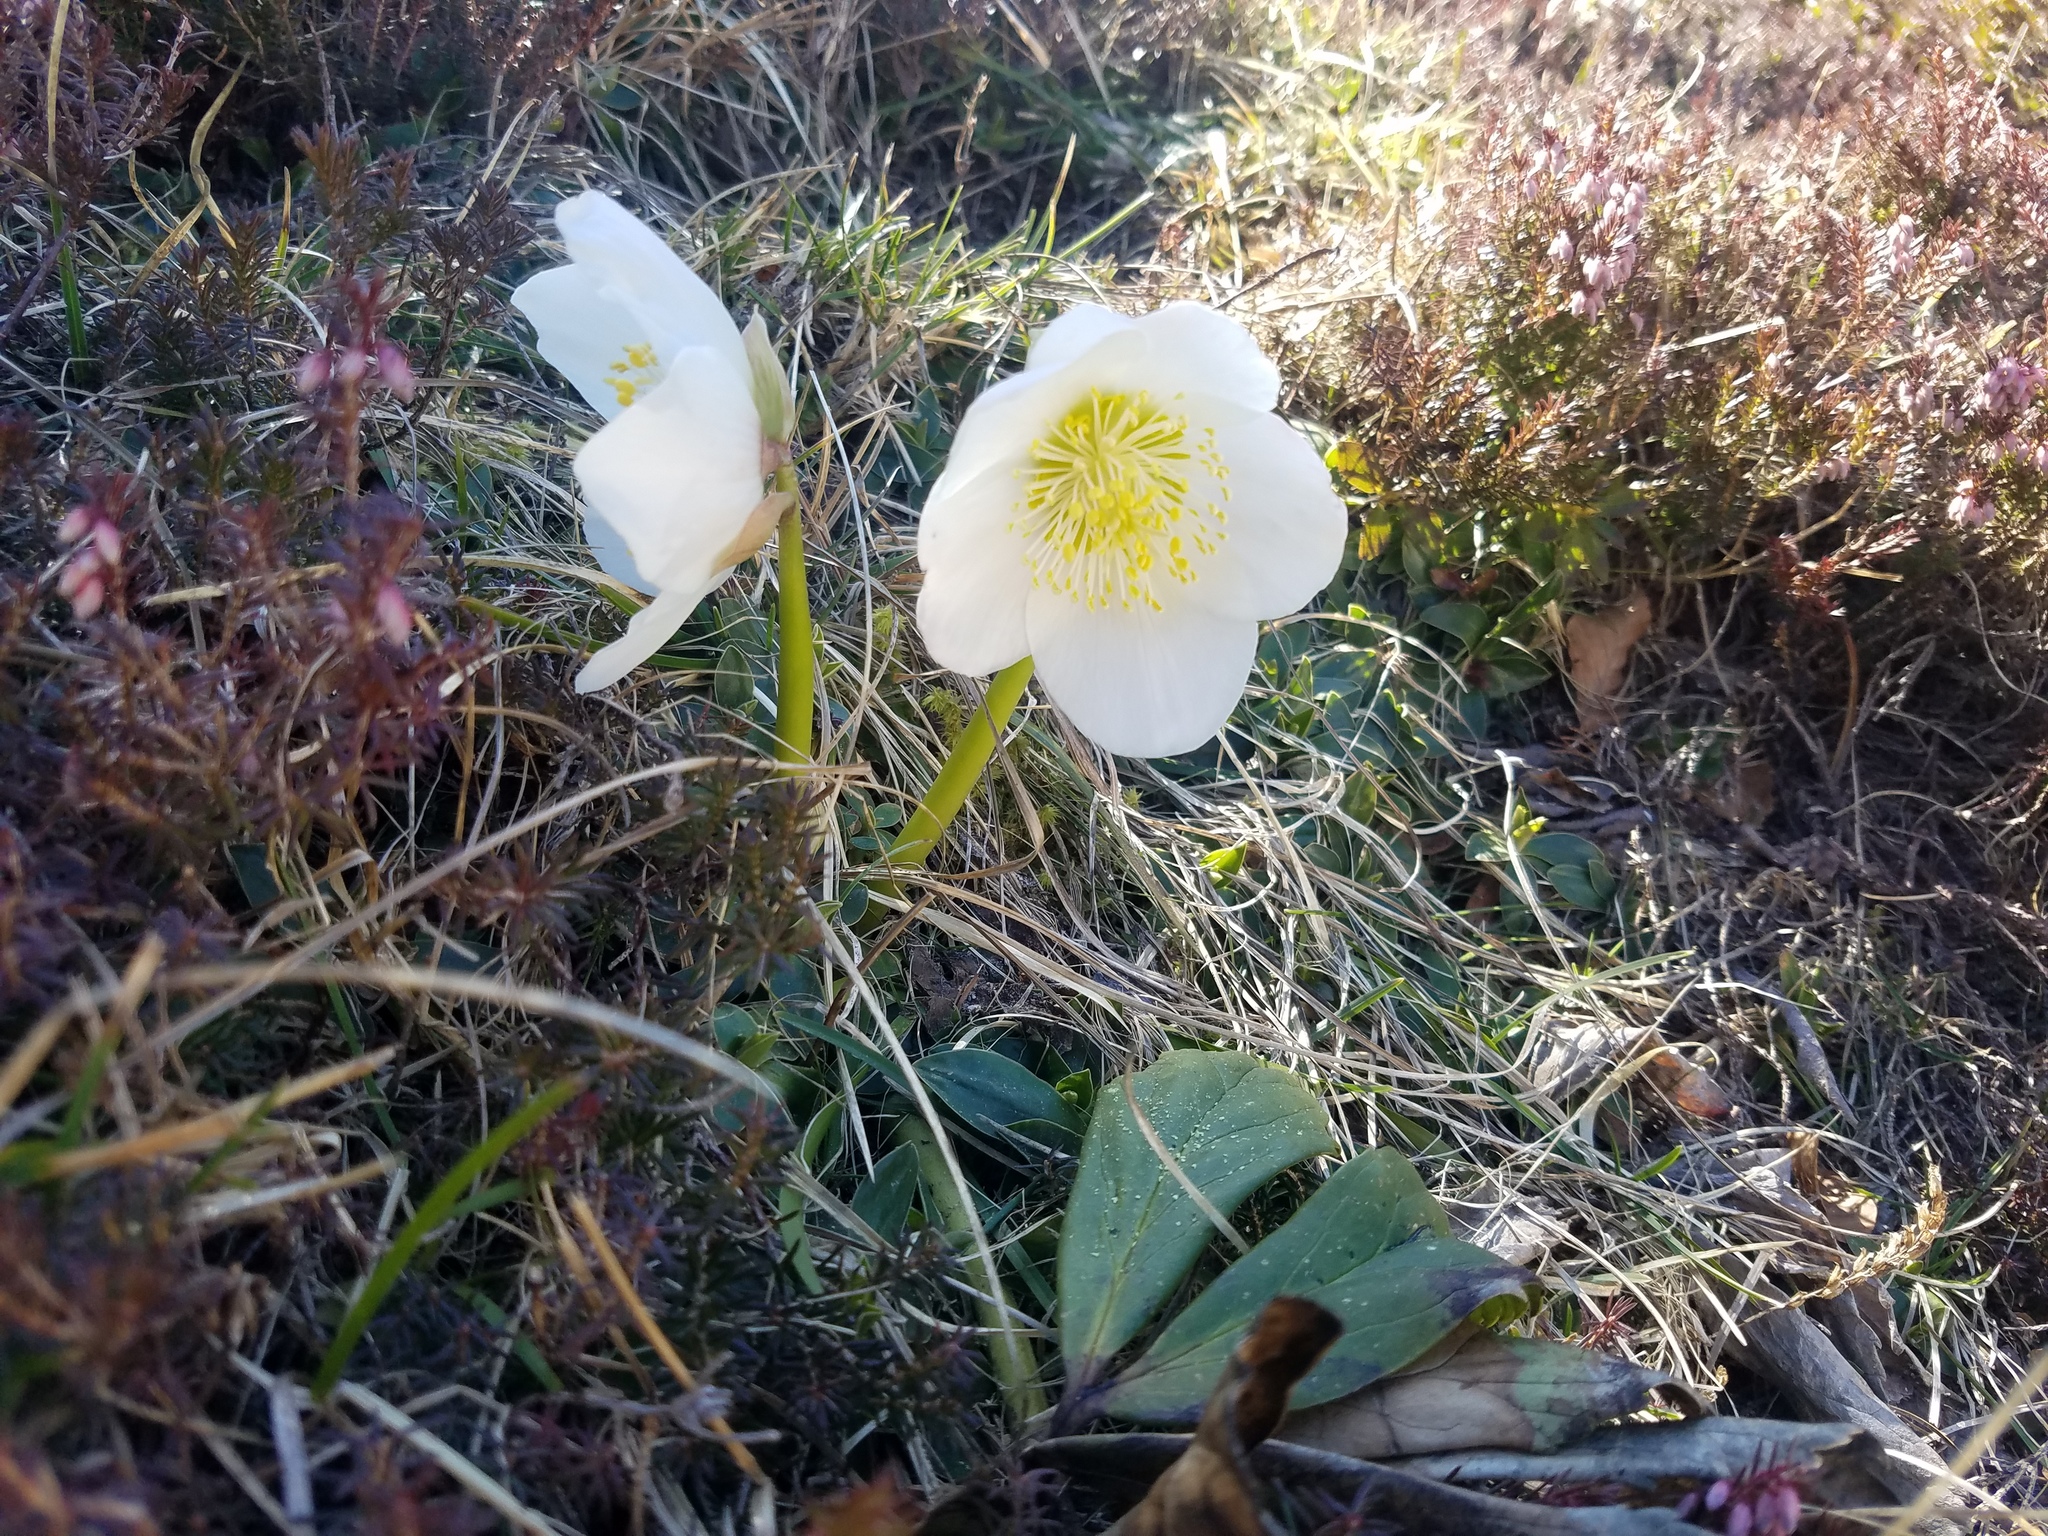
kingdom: Plantae
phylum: Tracheophyta
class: Magnoliopsida
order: Ranunculales
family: Ranunculaceae
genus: Helleborus
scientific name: Helleborus niger
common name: Black hellebore
